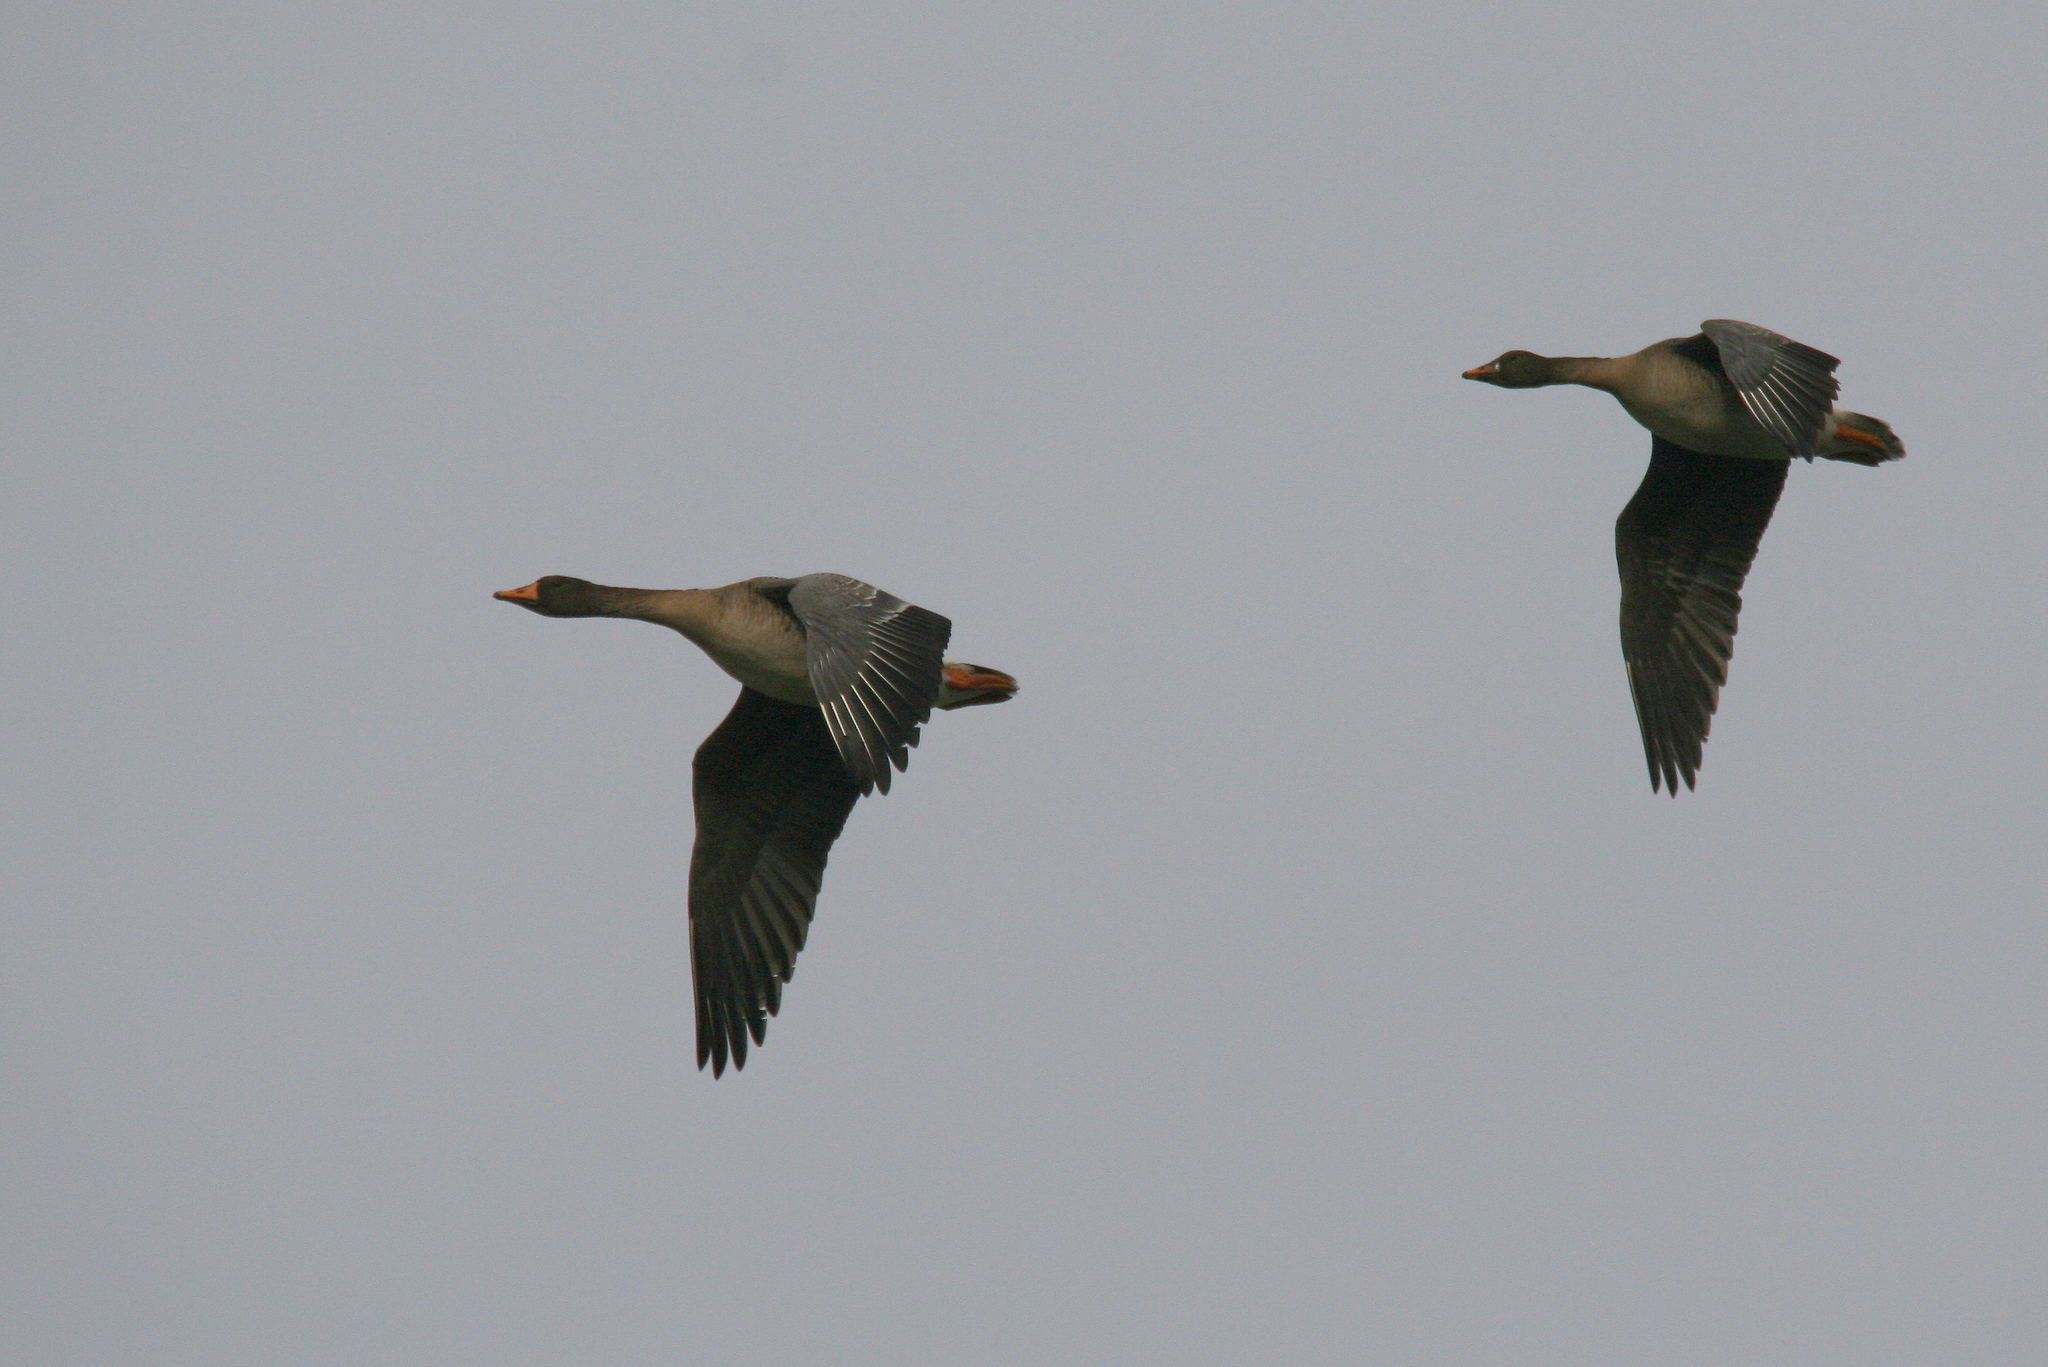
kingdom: Animalia
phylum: Chordata
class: Aves
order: Anseriformes
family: Anatidae
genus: Anser
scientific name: Anser fabalis
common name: Bean goose
